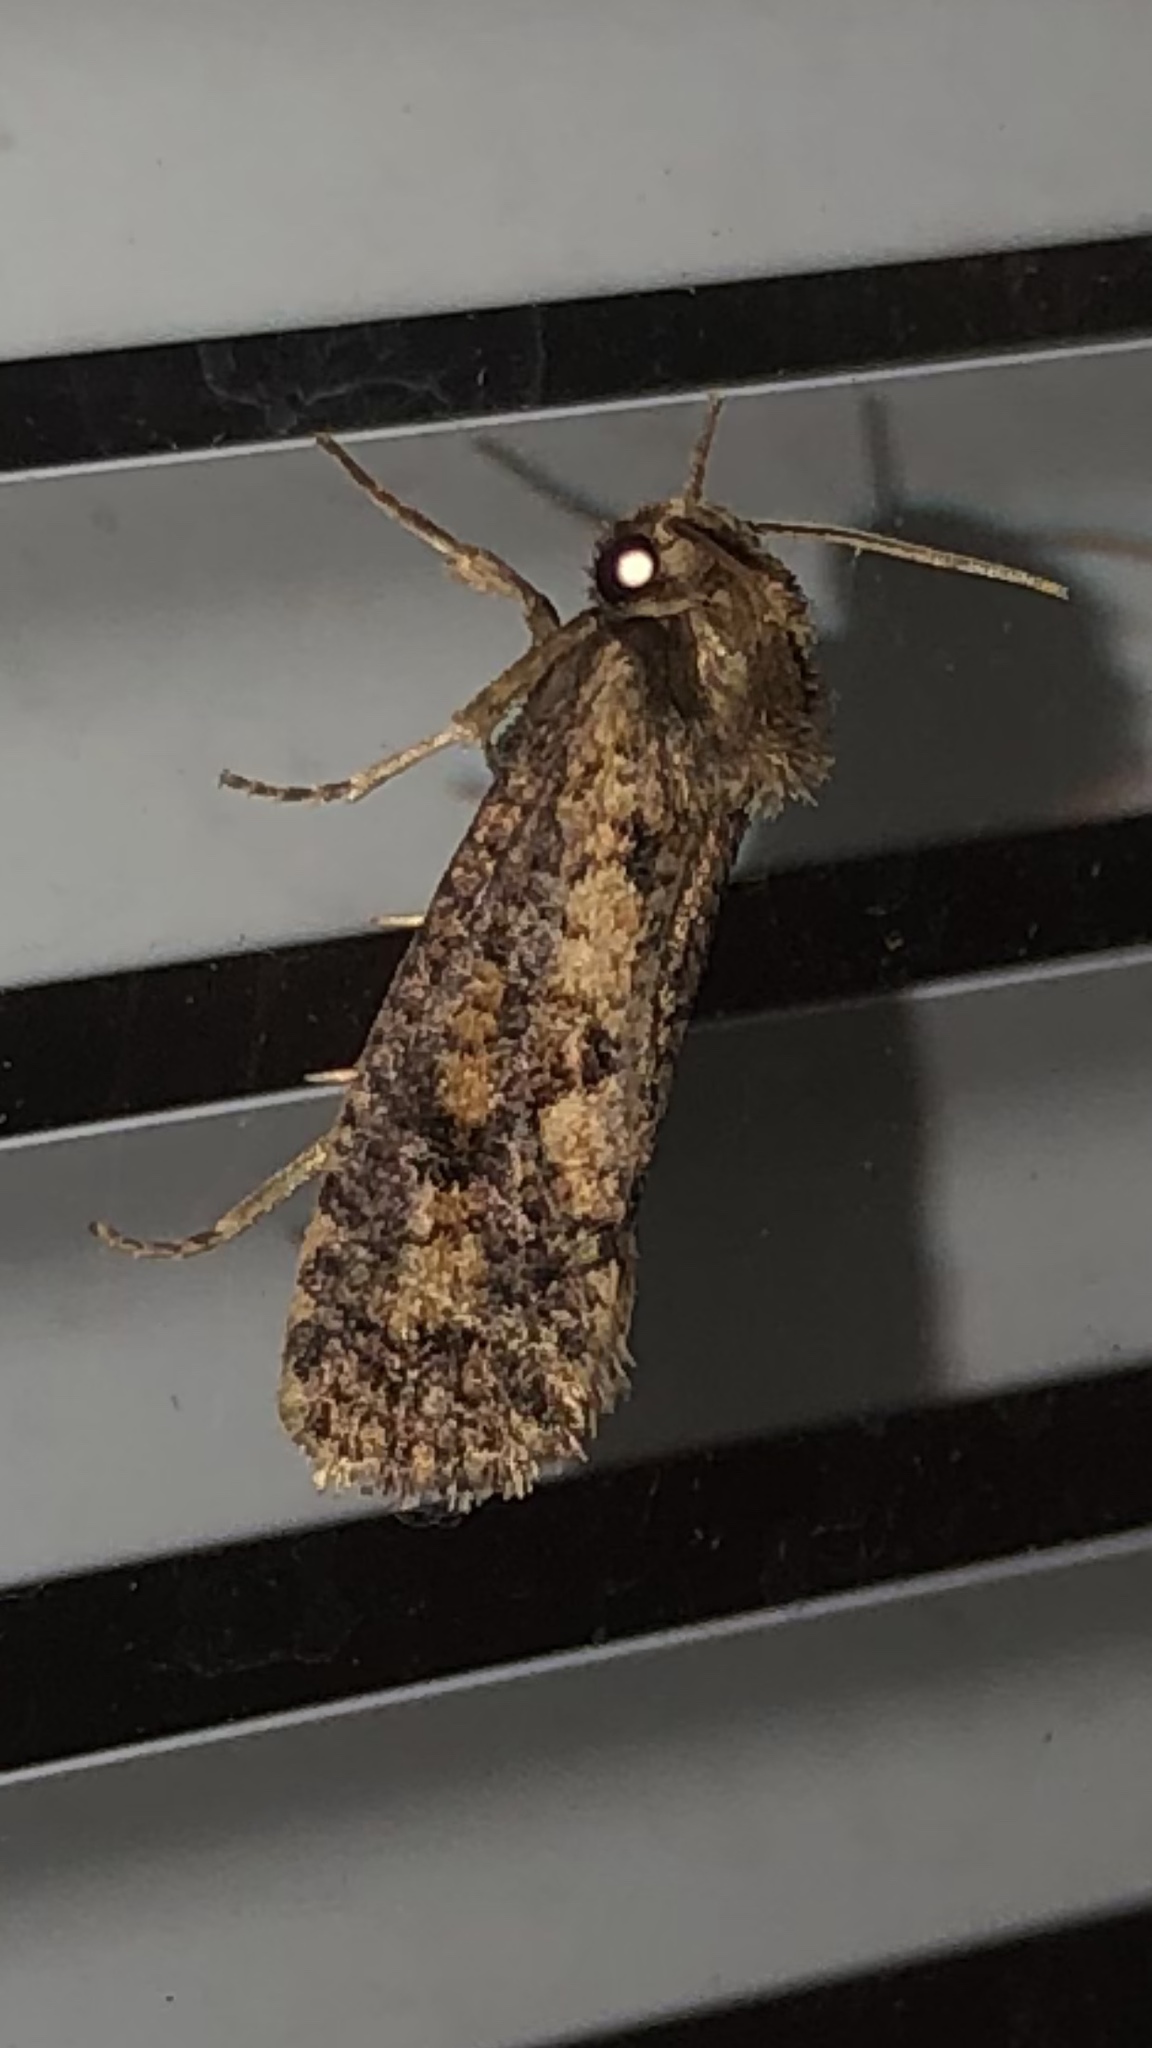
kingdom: Animalia
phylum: Arthropoda
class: Insecta
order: Lepidoptera
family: Tineidae
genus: Acrolophus
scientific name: Acrolophus popeanella
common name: Clemens' grass tubeworm moth
